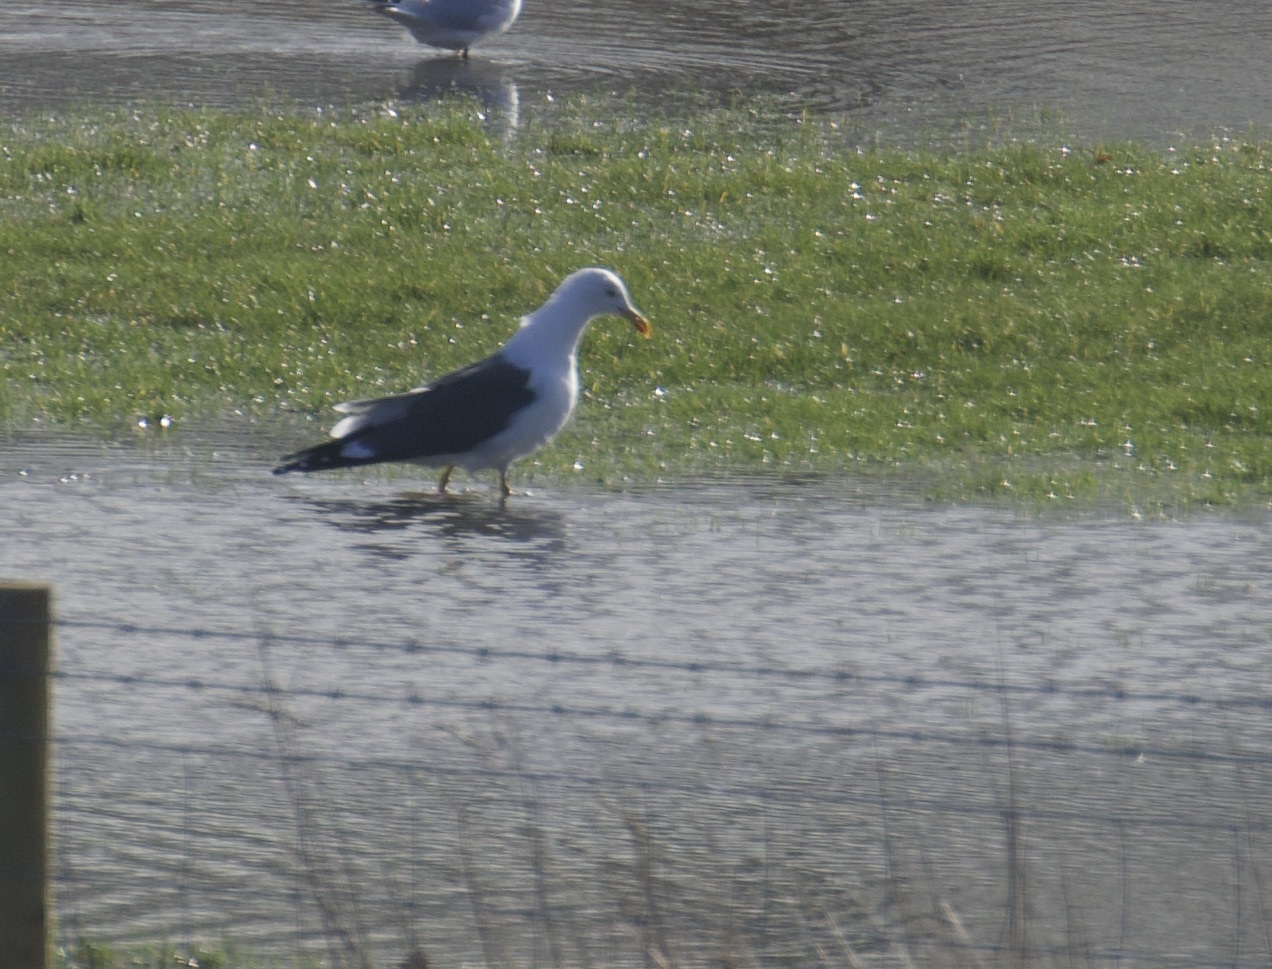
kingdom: Animalia
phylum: Chordata
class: Aves
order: Charadriiformes
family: Laridae
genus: Larus
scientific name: Larus fuscus
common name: Lesser black-backed gull
